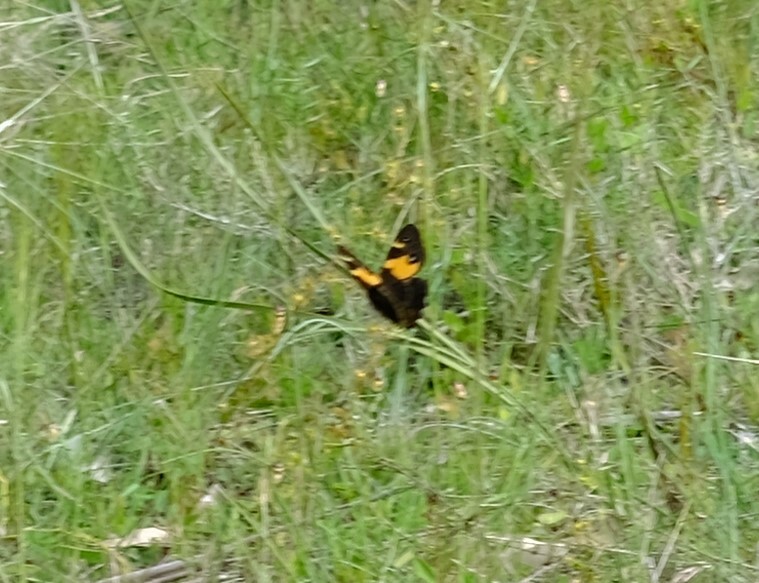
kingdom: Animalia
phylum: Arthropoda
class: Insecta
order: Lepidoptera
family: Nymphalidae
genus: Tisiphone
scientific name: Tisiphone abeona
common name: Swordgrass brown
